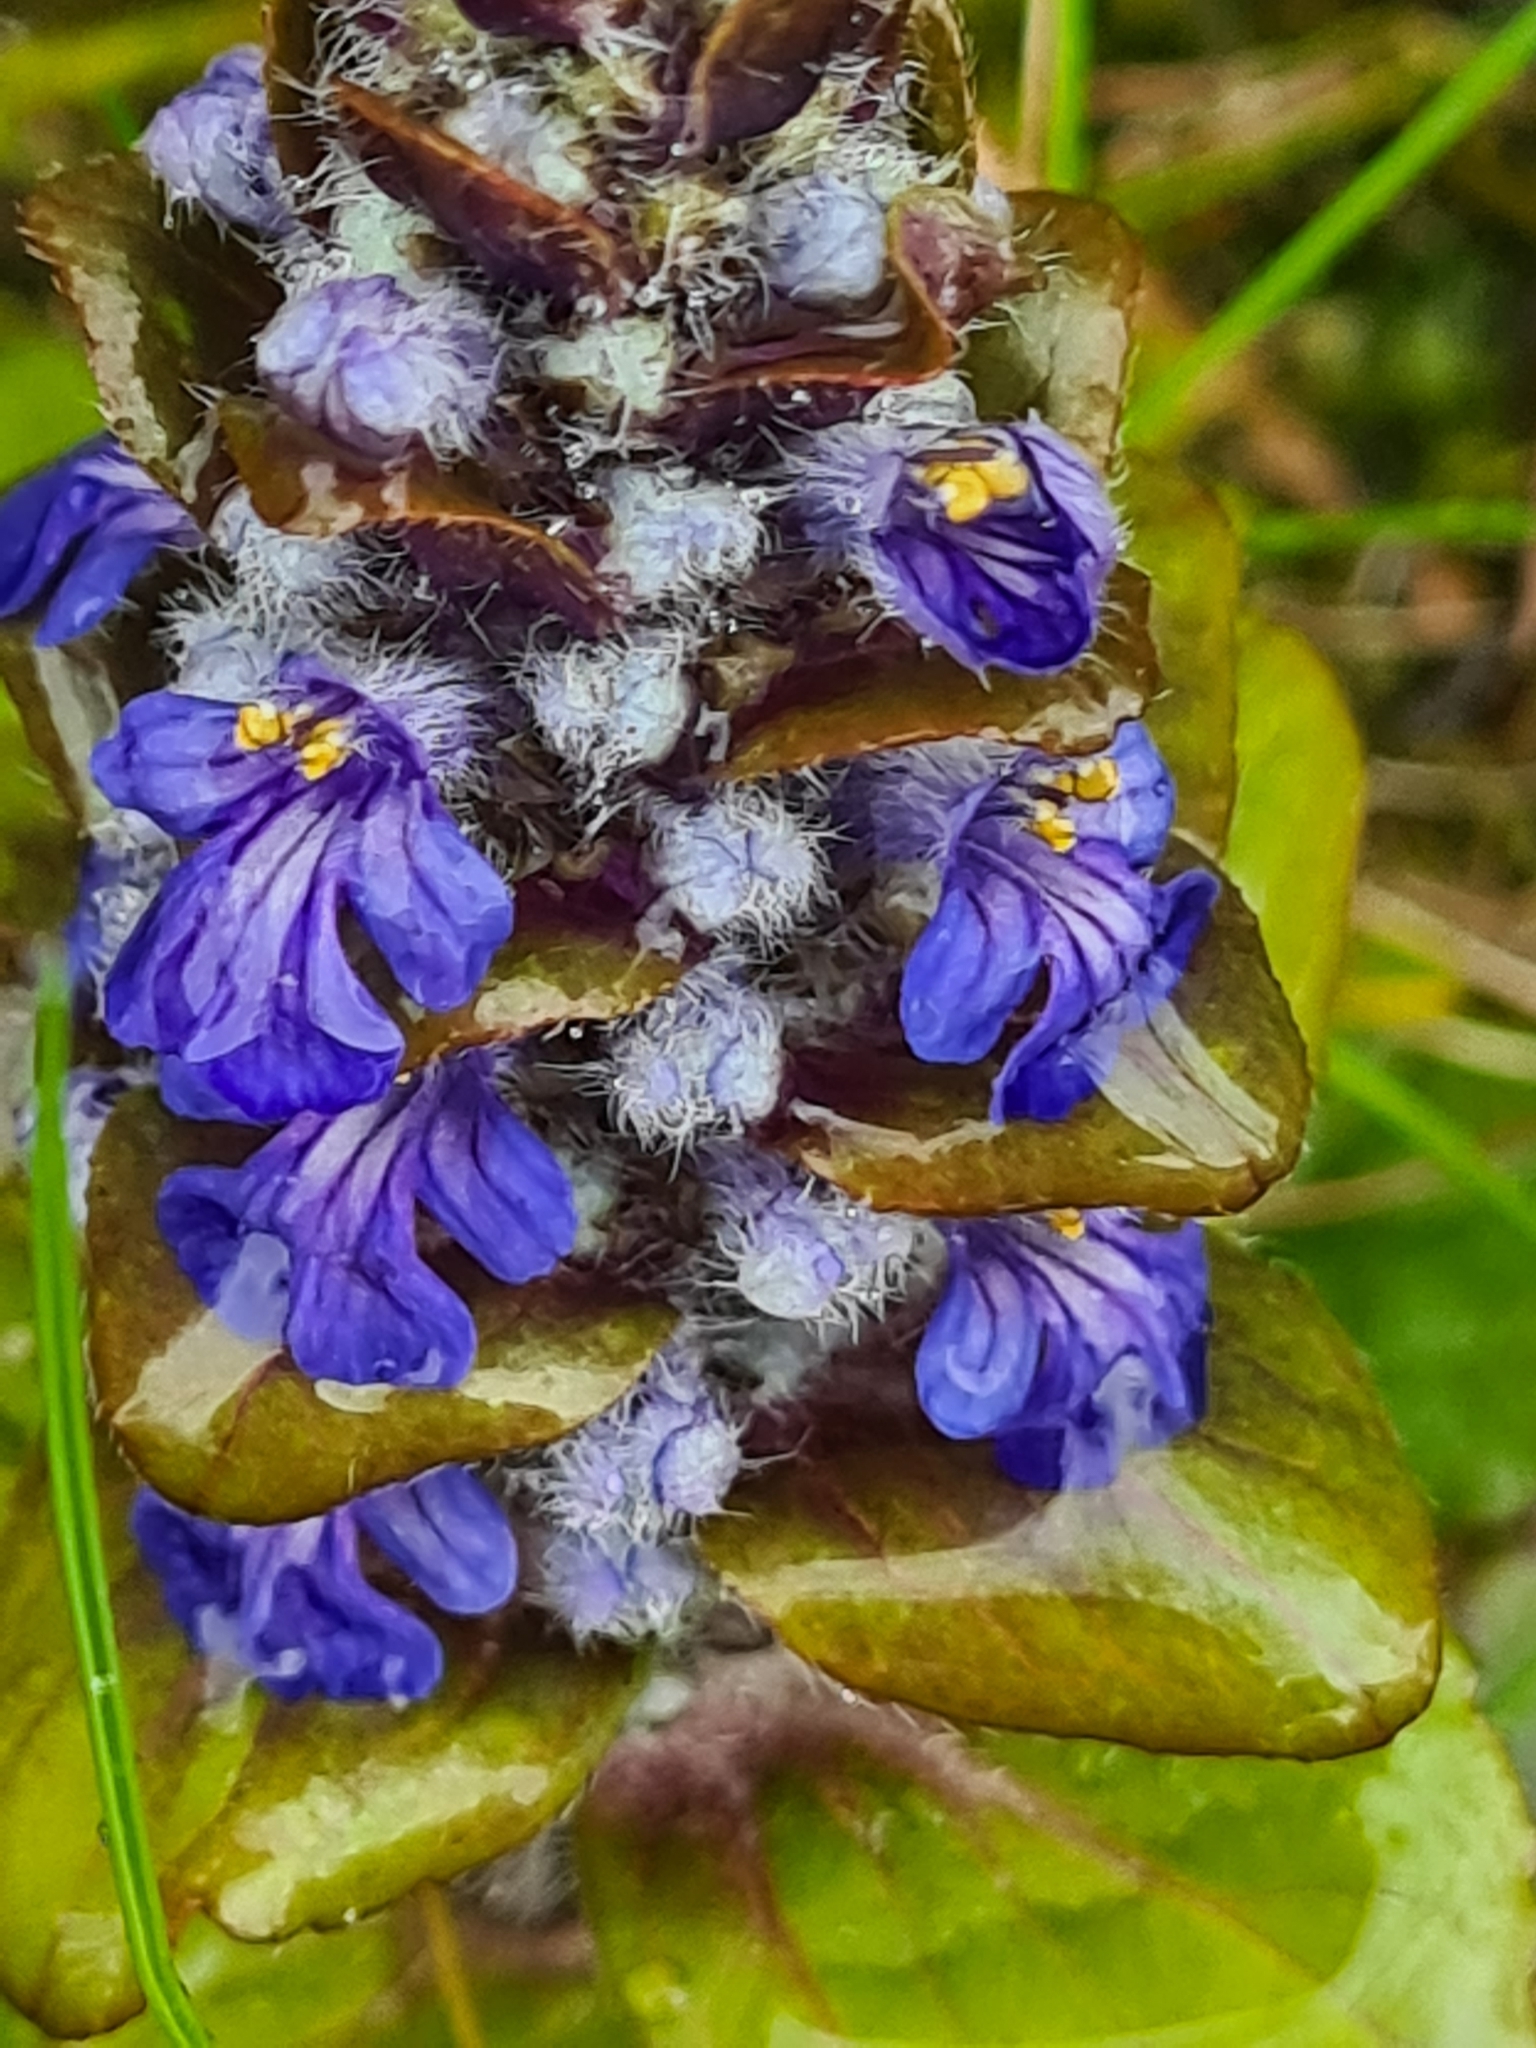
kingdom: Plantae
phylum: Tracheophyta
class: Magnoliopsida
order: Lamiales
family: Lamiaceae
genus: Ajuga
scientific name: Ajuga reptans
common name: Bugle
